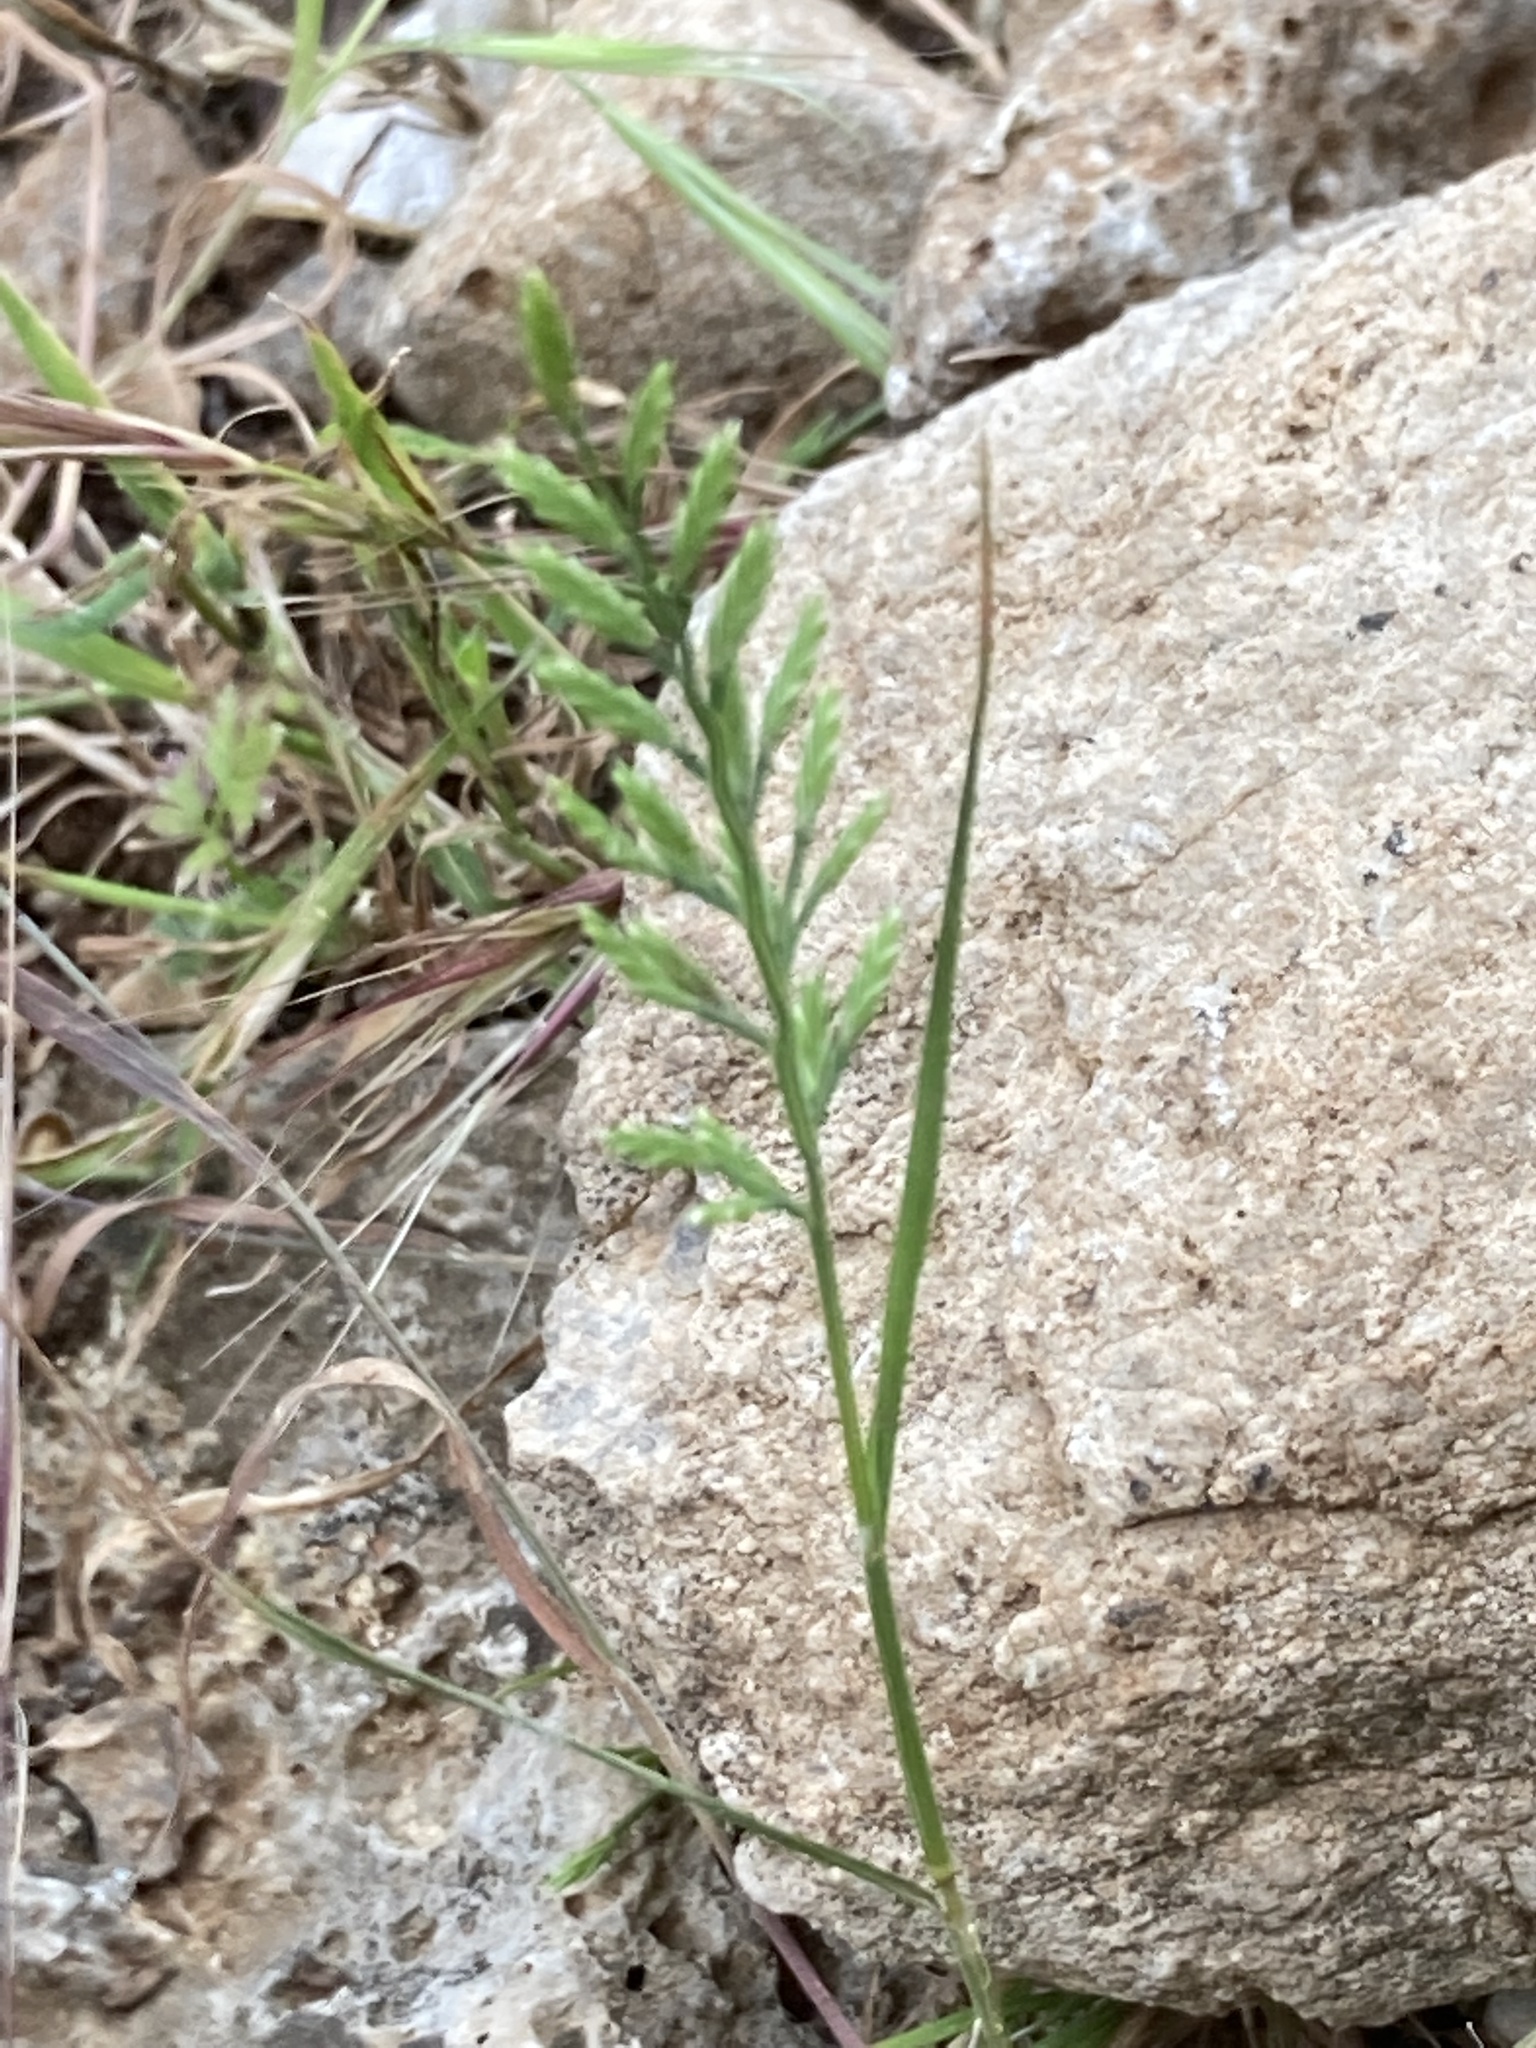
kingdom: Plantae
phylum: Tracheophyta
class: Liliopsida
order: Poales
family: Poaceae
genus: Catapodium
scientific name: Catapodium rigidum
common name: Fern-grass
